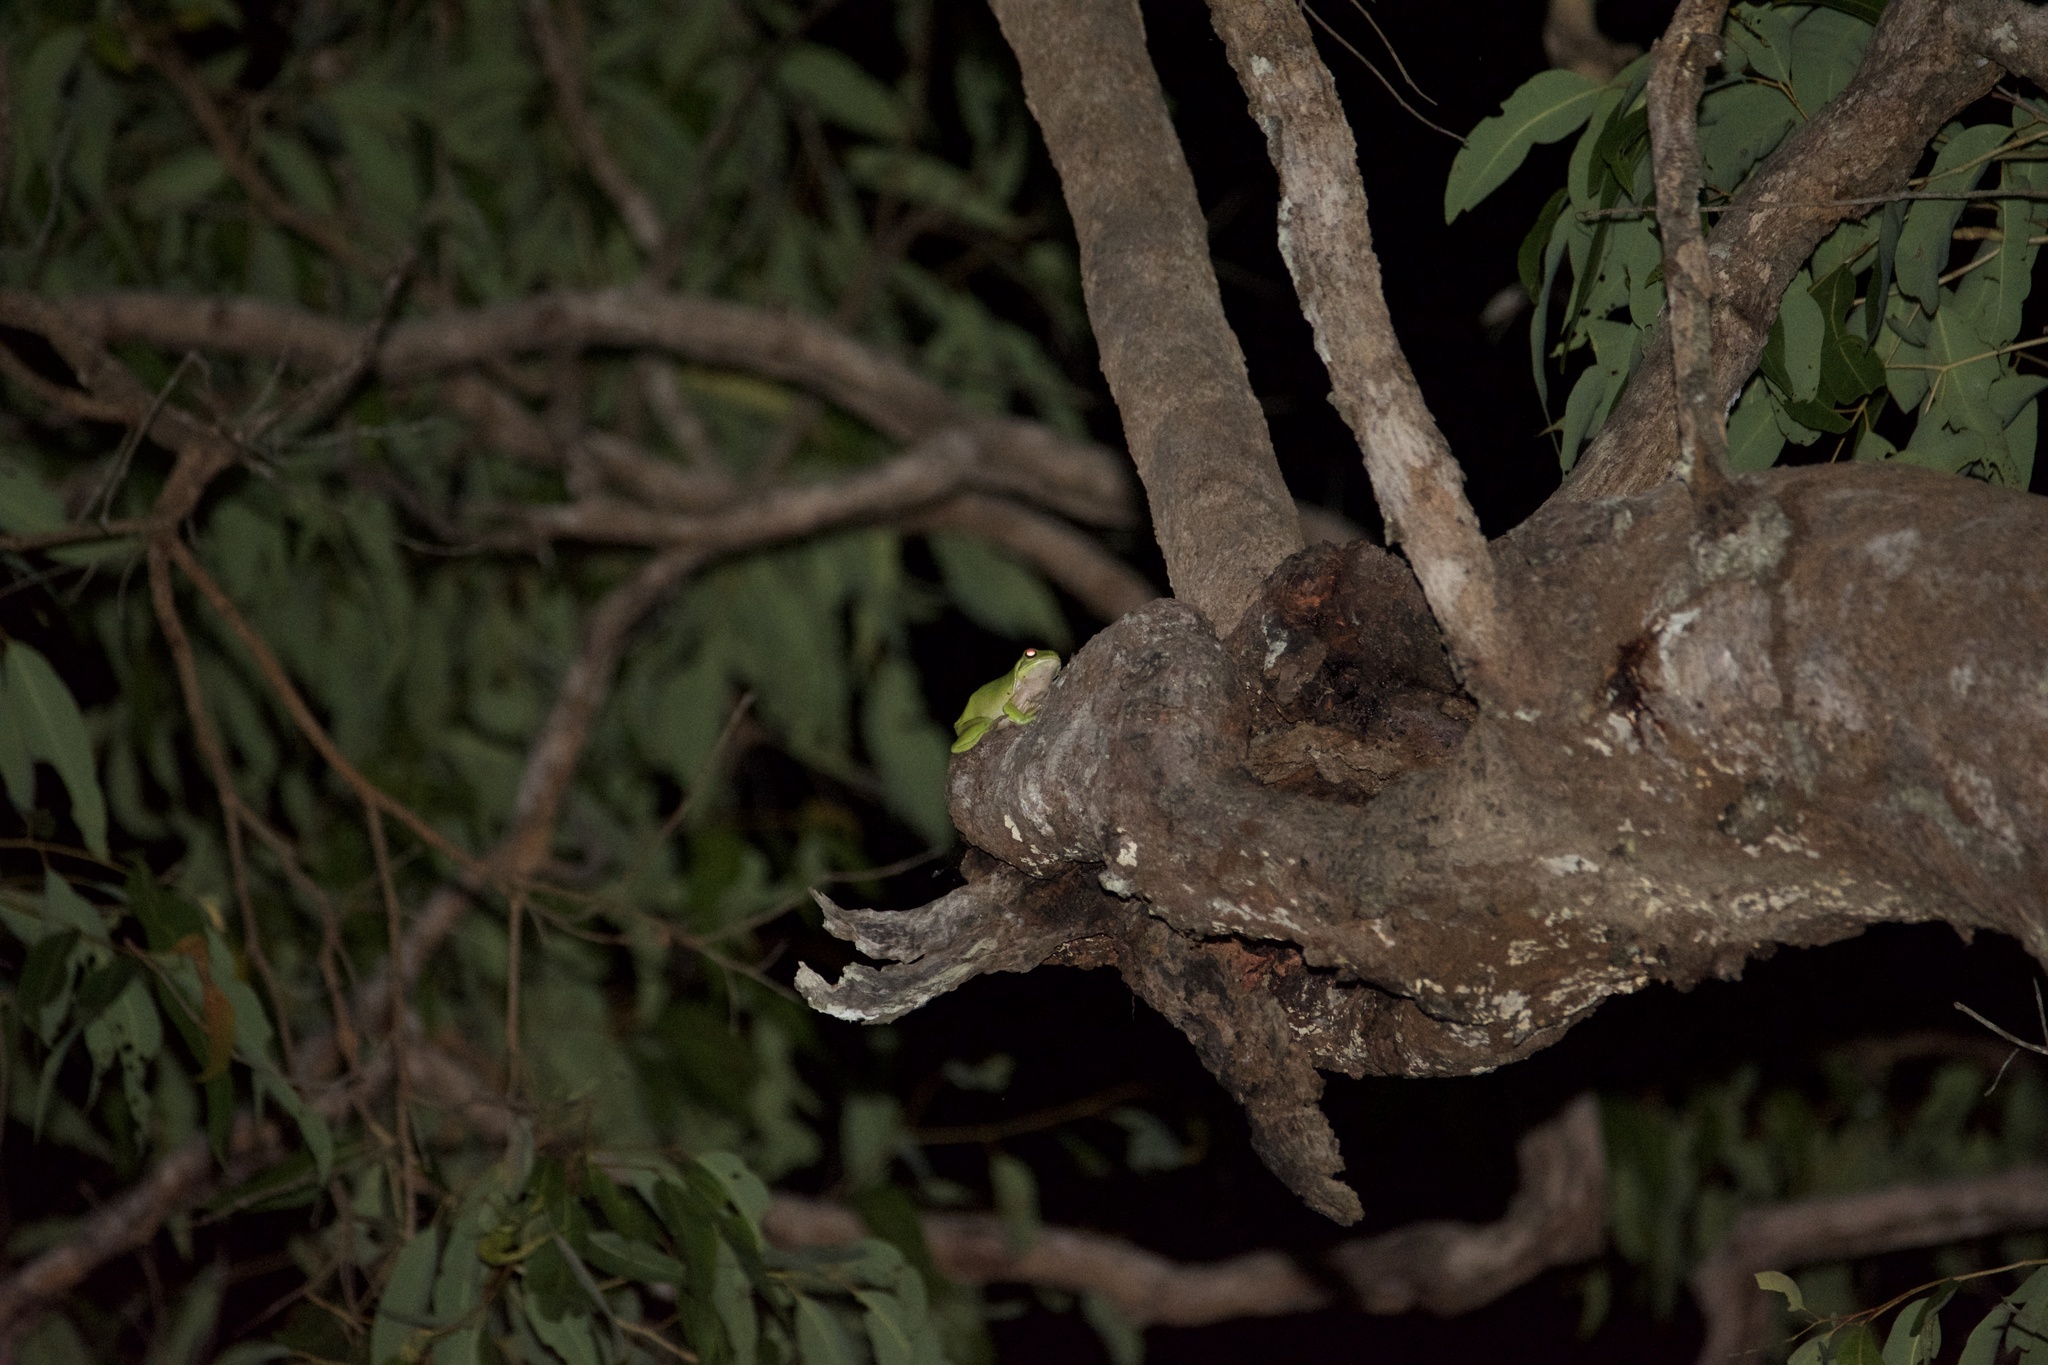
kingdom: Animalia
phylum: Chordata
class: Amphibia
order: Anura
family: Pelodryadidae
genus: Ranoidea
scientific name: Ranoidea caerulea
